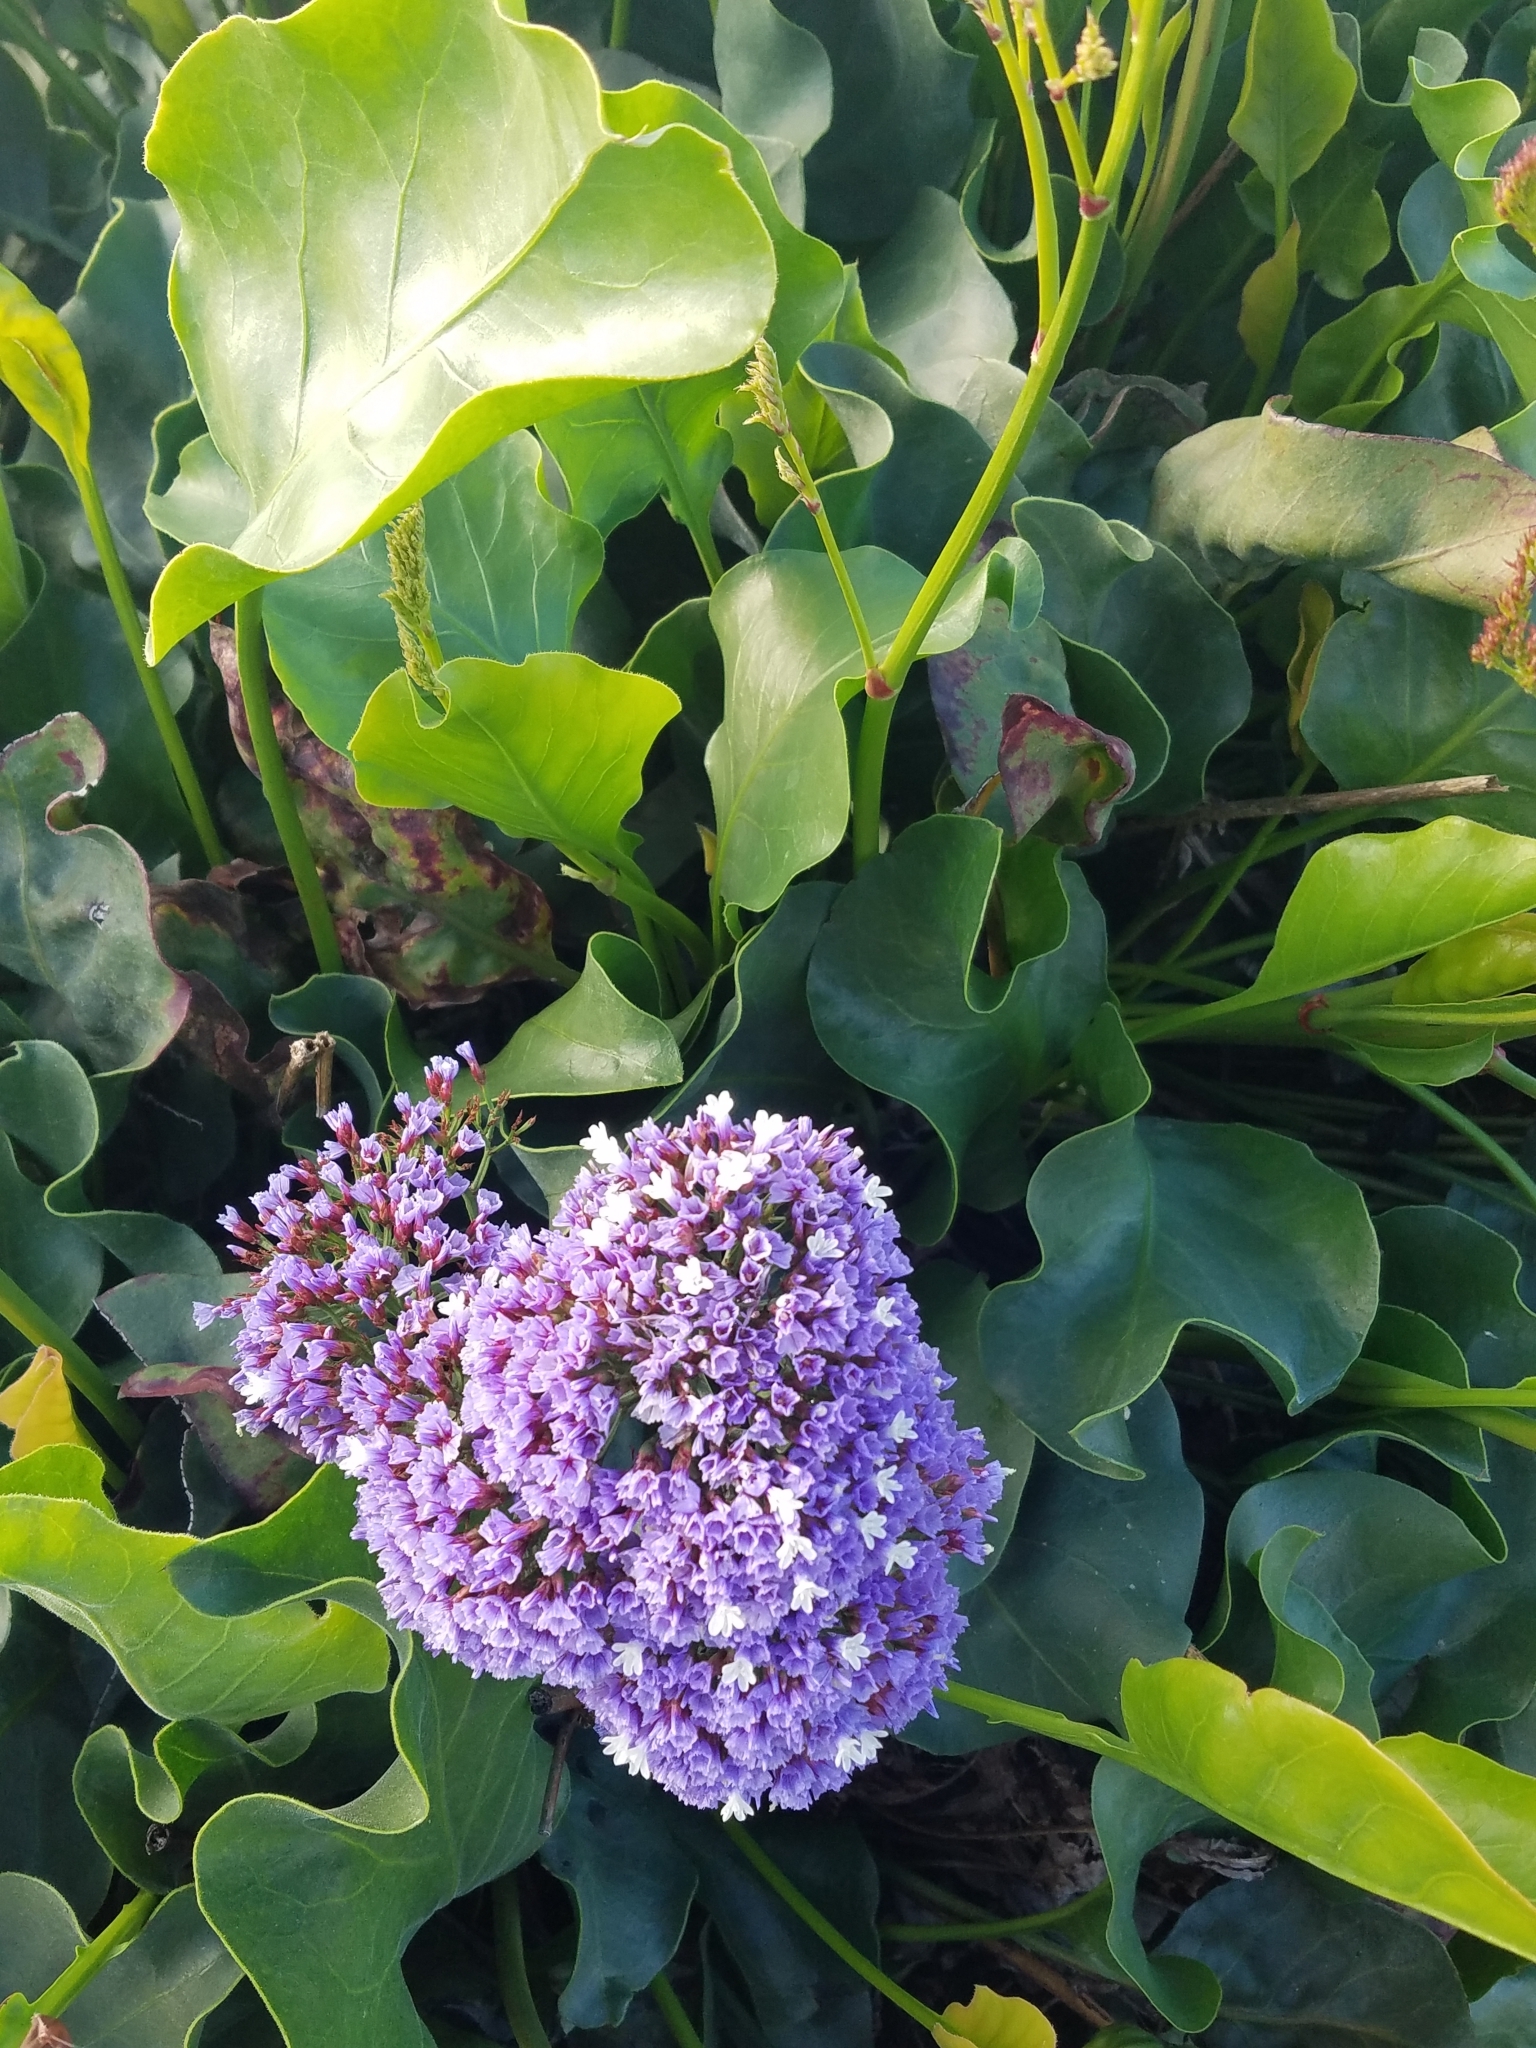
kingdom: Plantae
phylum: Tracheophyta
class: Magnoliopsida
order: Caryophyllales
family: Plumbaginaceae
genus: Limonium
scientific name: Limonium perezii
